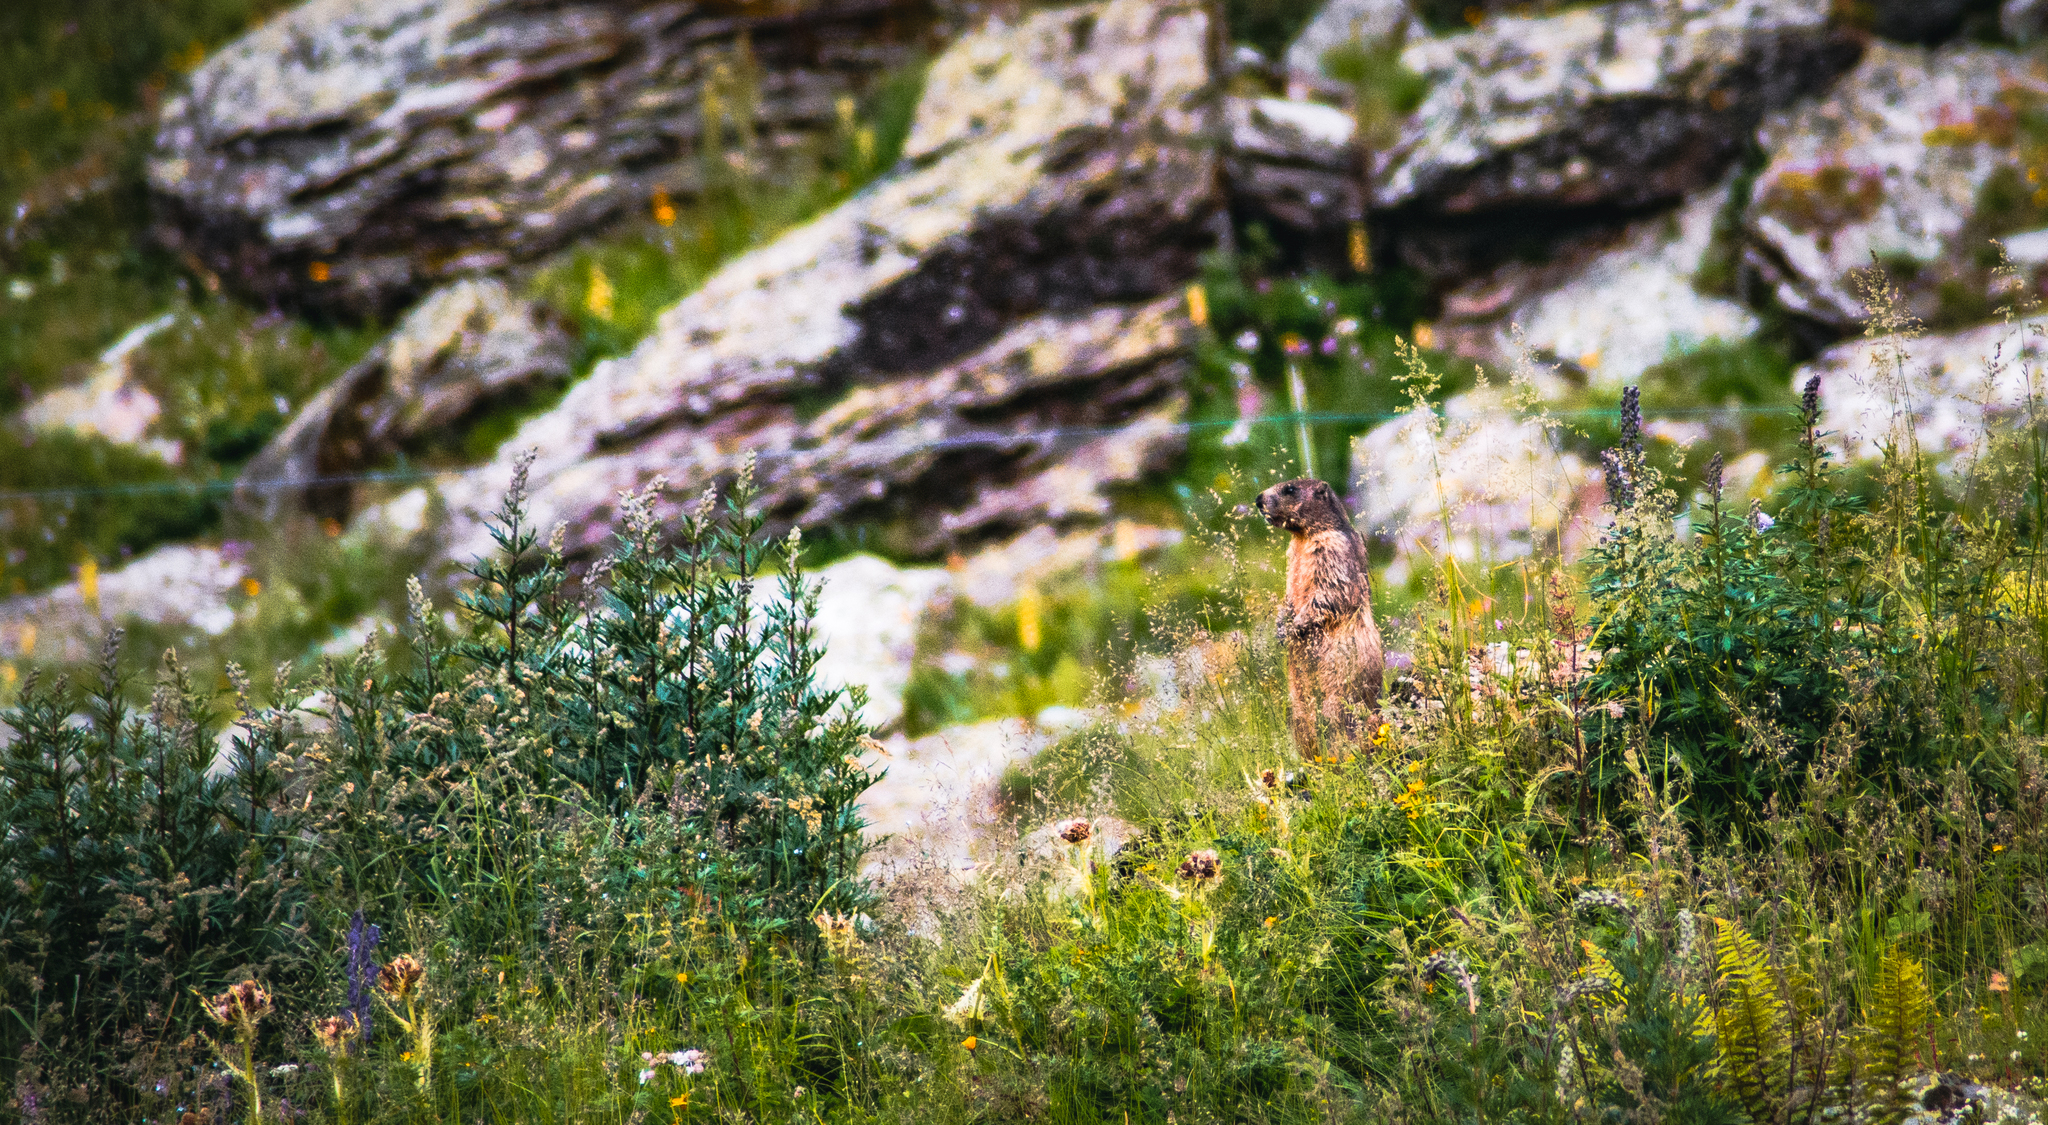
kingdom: Animalia
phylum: Chordata
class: Mammalia
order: Rodentia
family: Sciuridae
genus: Marmota
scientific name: Marmota marmota
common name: Alpine marmot
